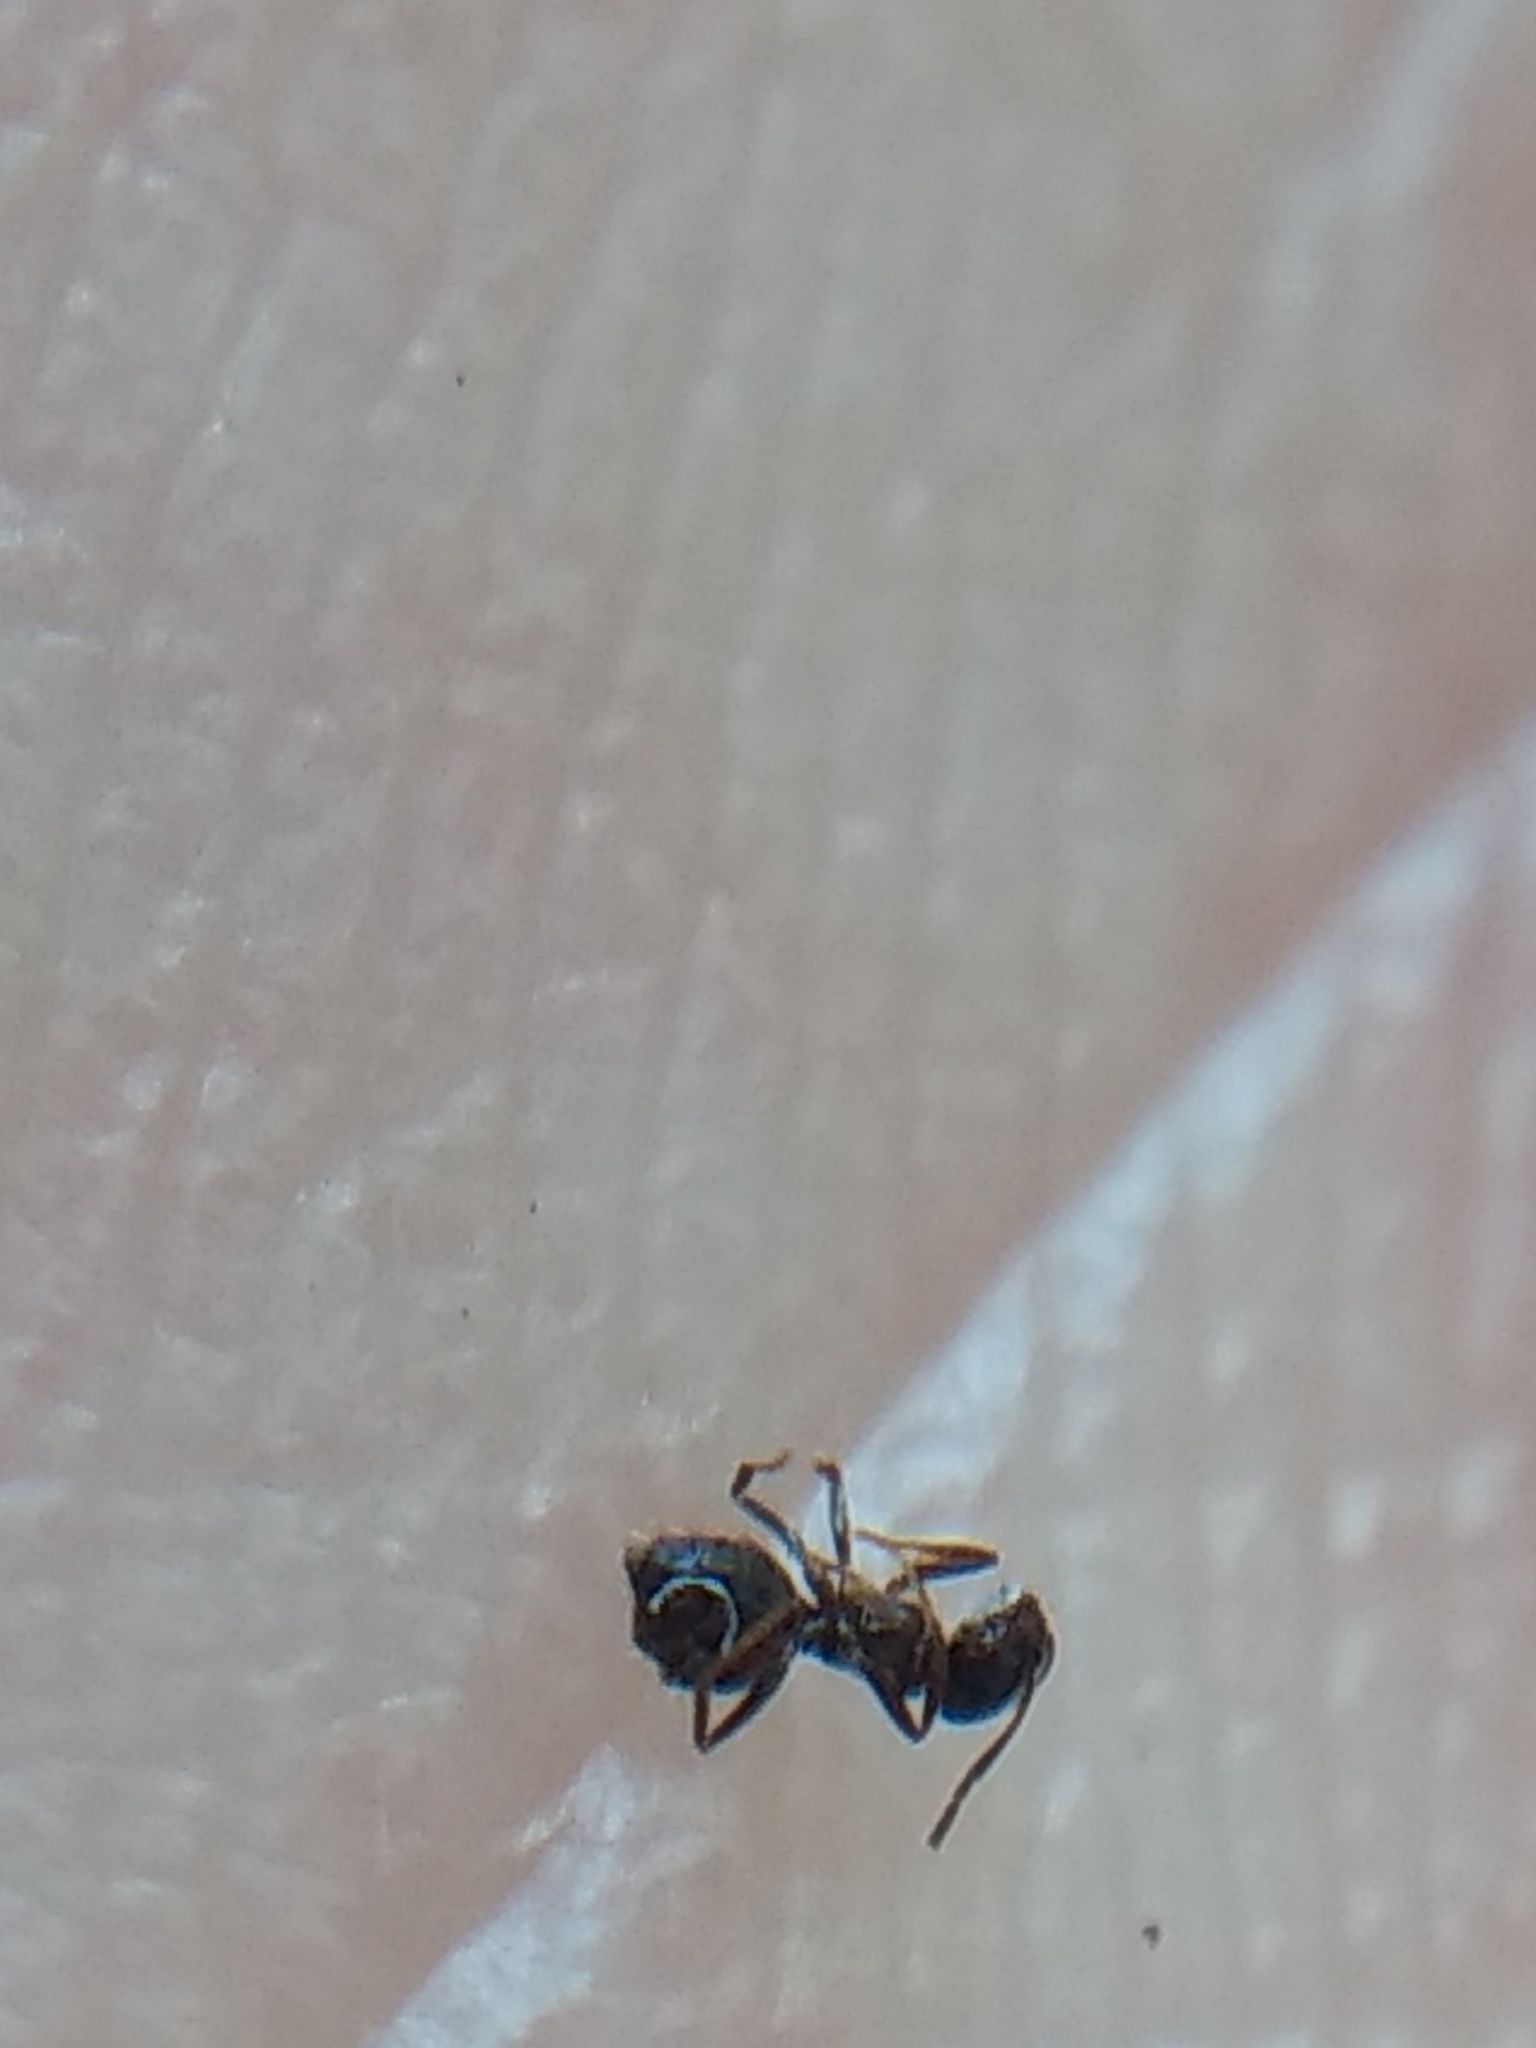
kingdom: Animalia
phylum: Arthropoda
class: Insecta
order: Hymenoptera
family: Formicidae
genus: Brachymyrmex
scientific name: Brachymyrmex patagonicus
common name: Dark rover ant
